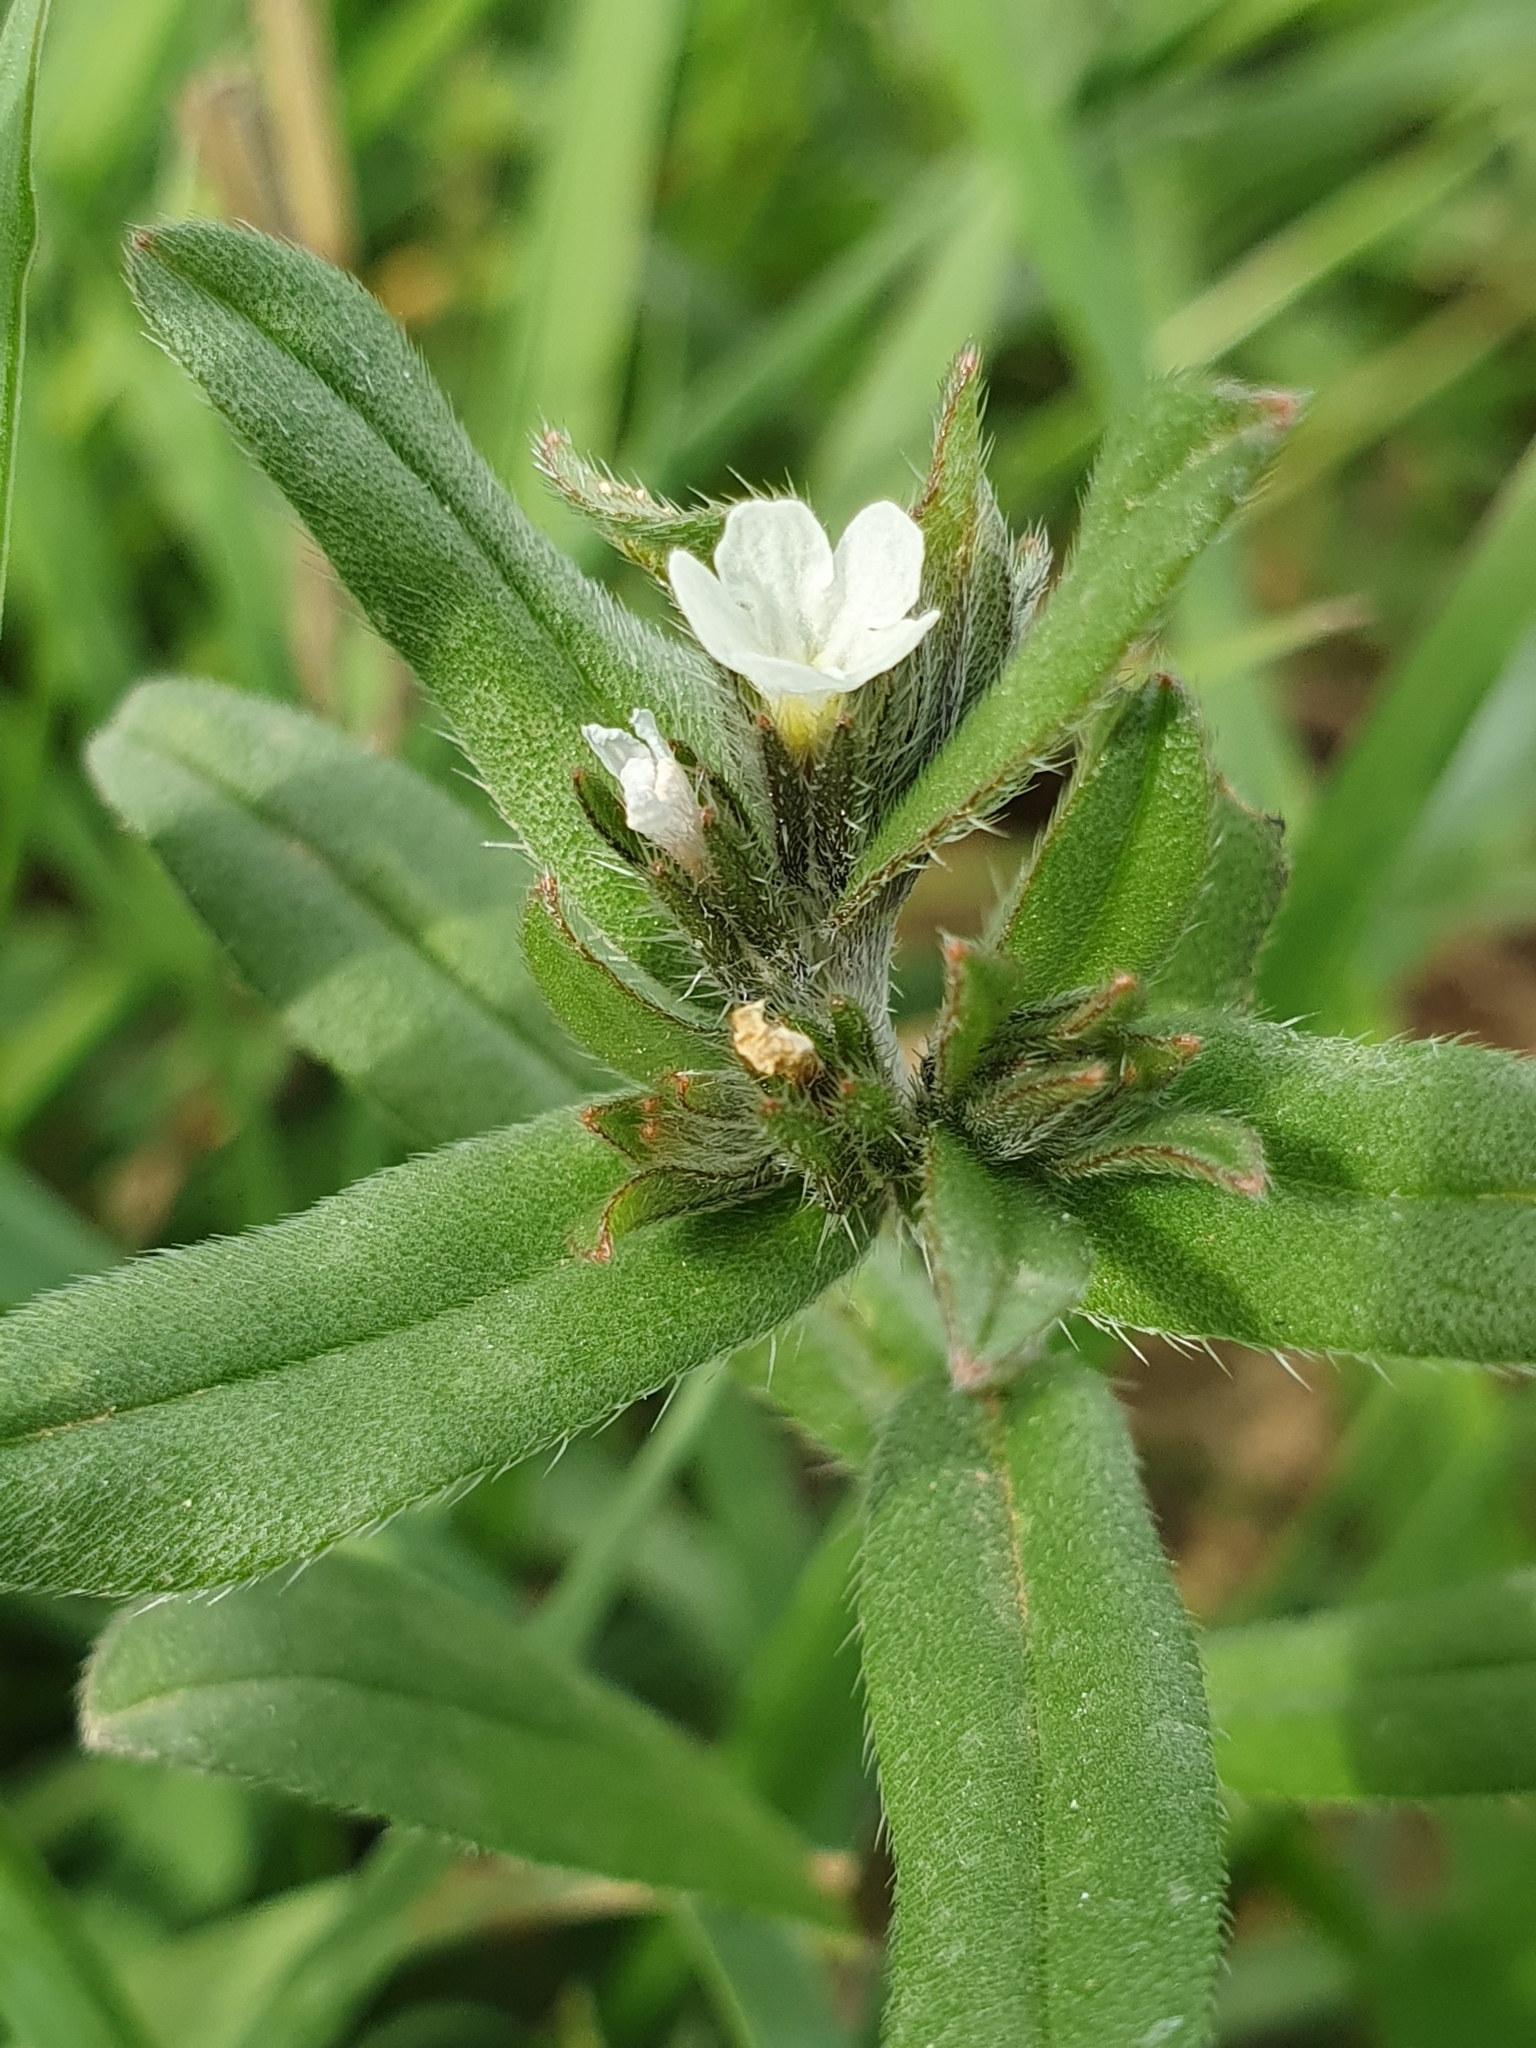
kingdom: Plantae
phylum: Tracheophyta
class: Magnoliopsida
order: Boraginales
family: Boraginaceae
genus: Buglossoides
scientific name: Buglossoides arvensis
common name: Corn gromwell
